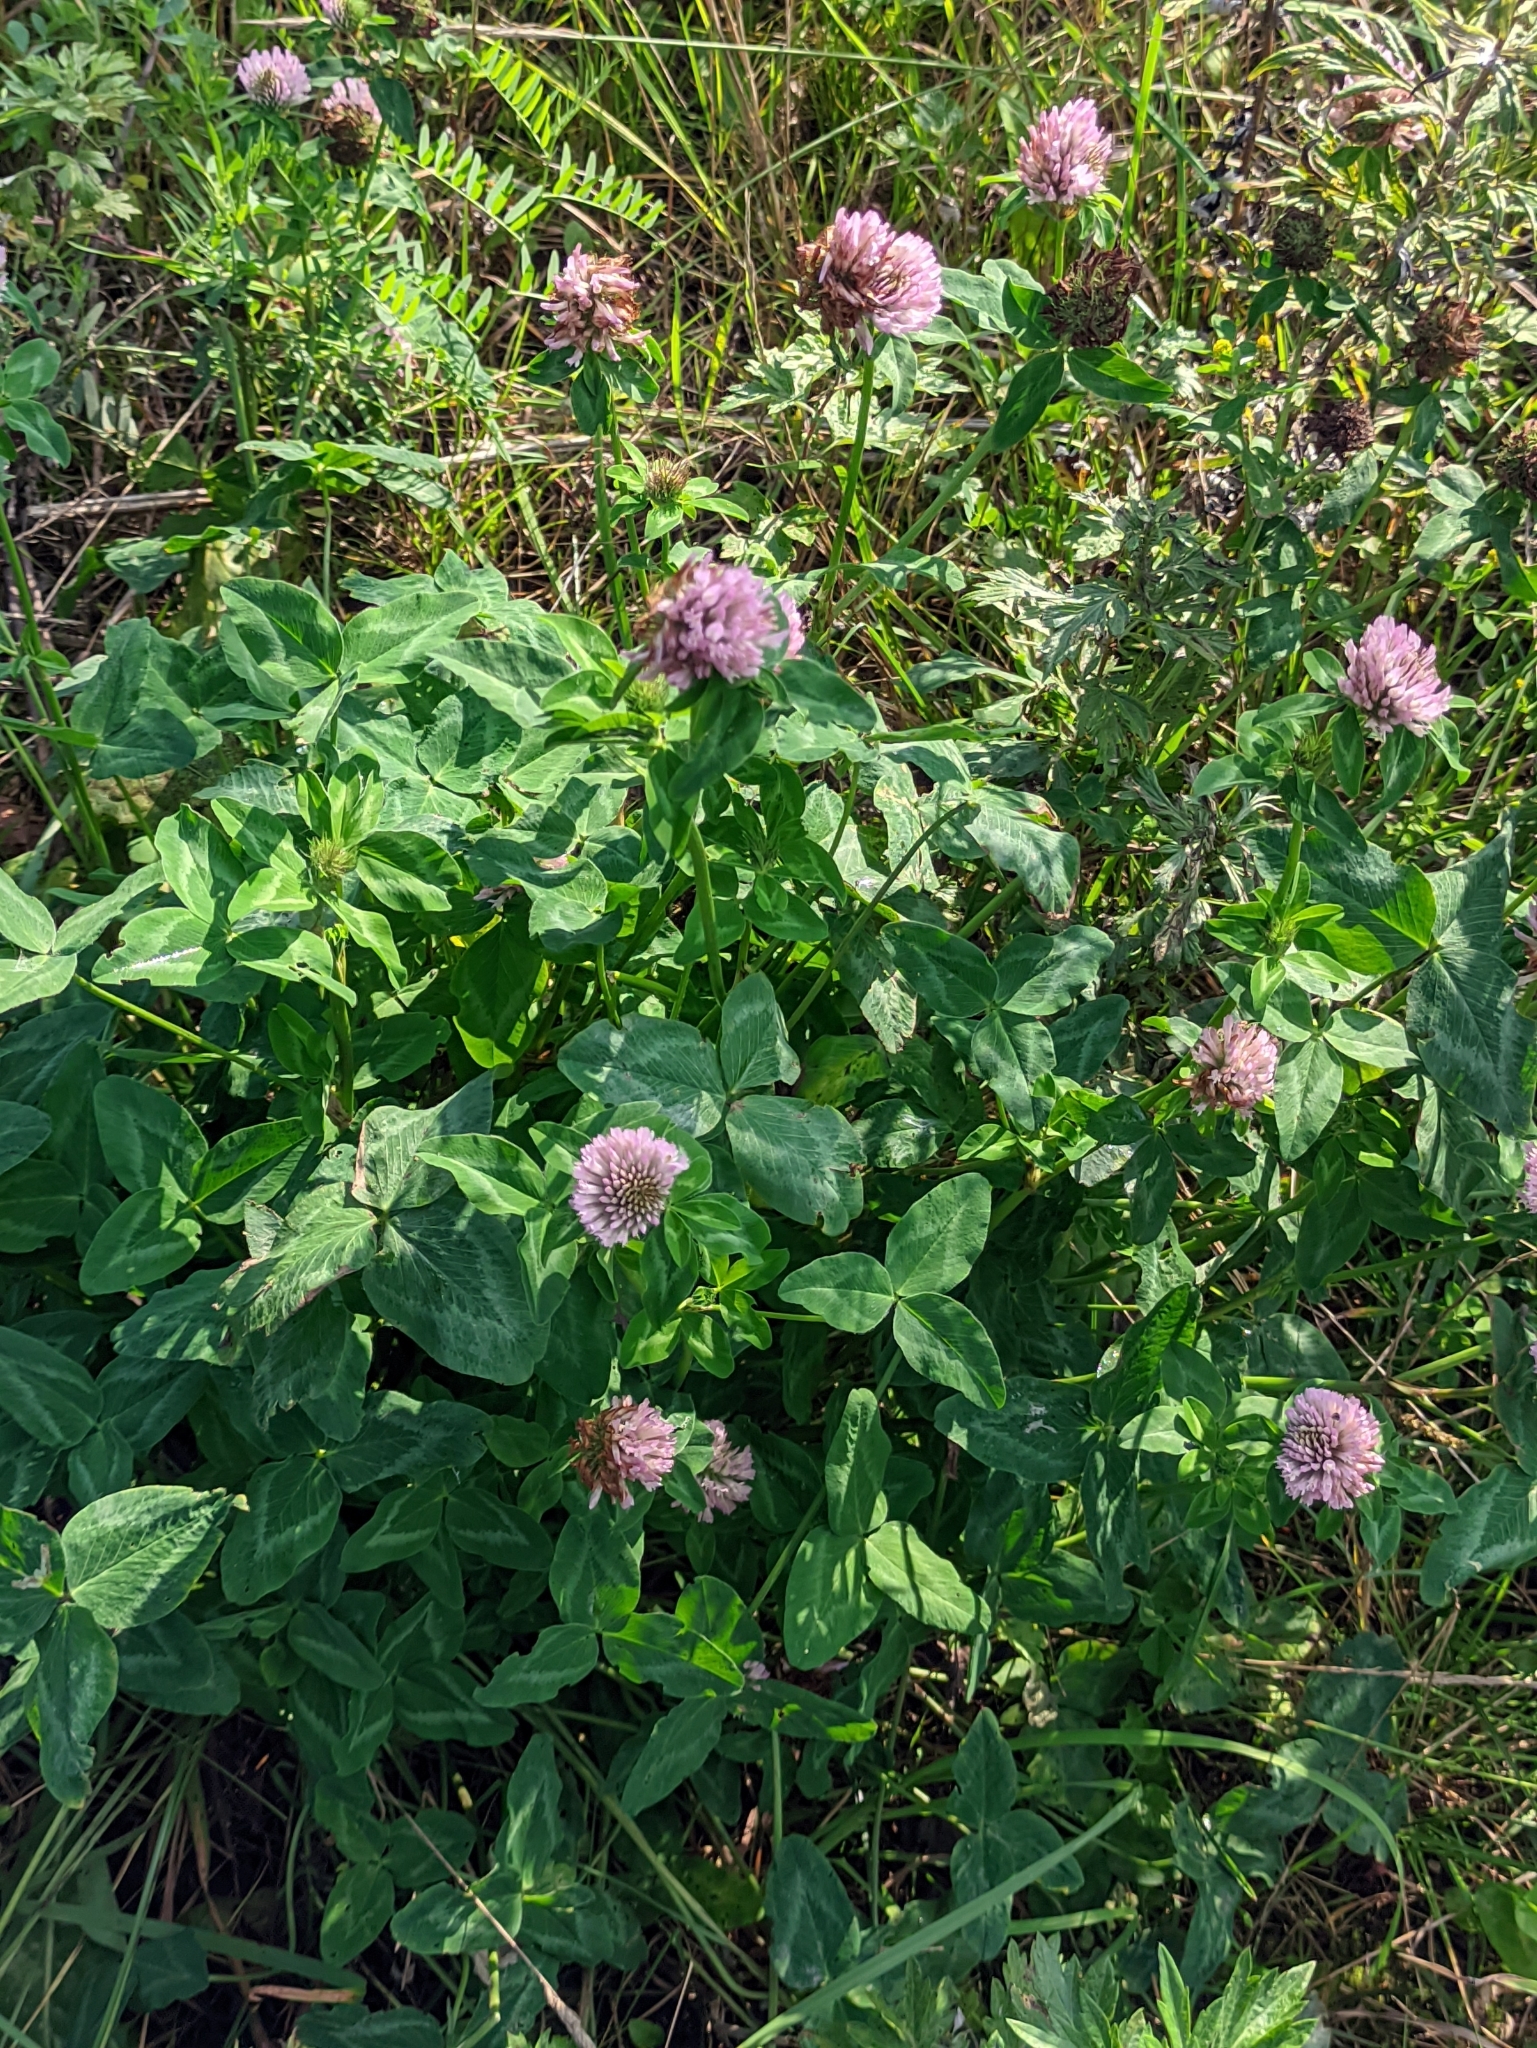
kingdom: Plantae
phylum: Tracheophyta
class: Magnoliopsida
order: Fabales
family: Fabaceae
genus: Trifolium
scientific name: Trifolium pratense
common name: Red clover
